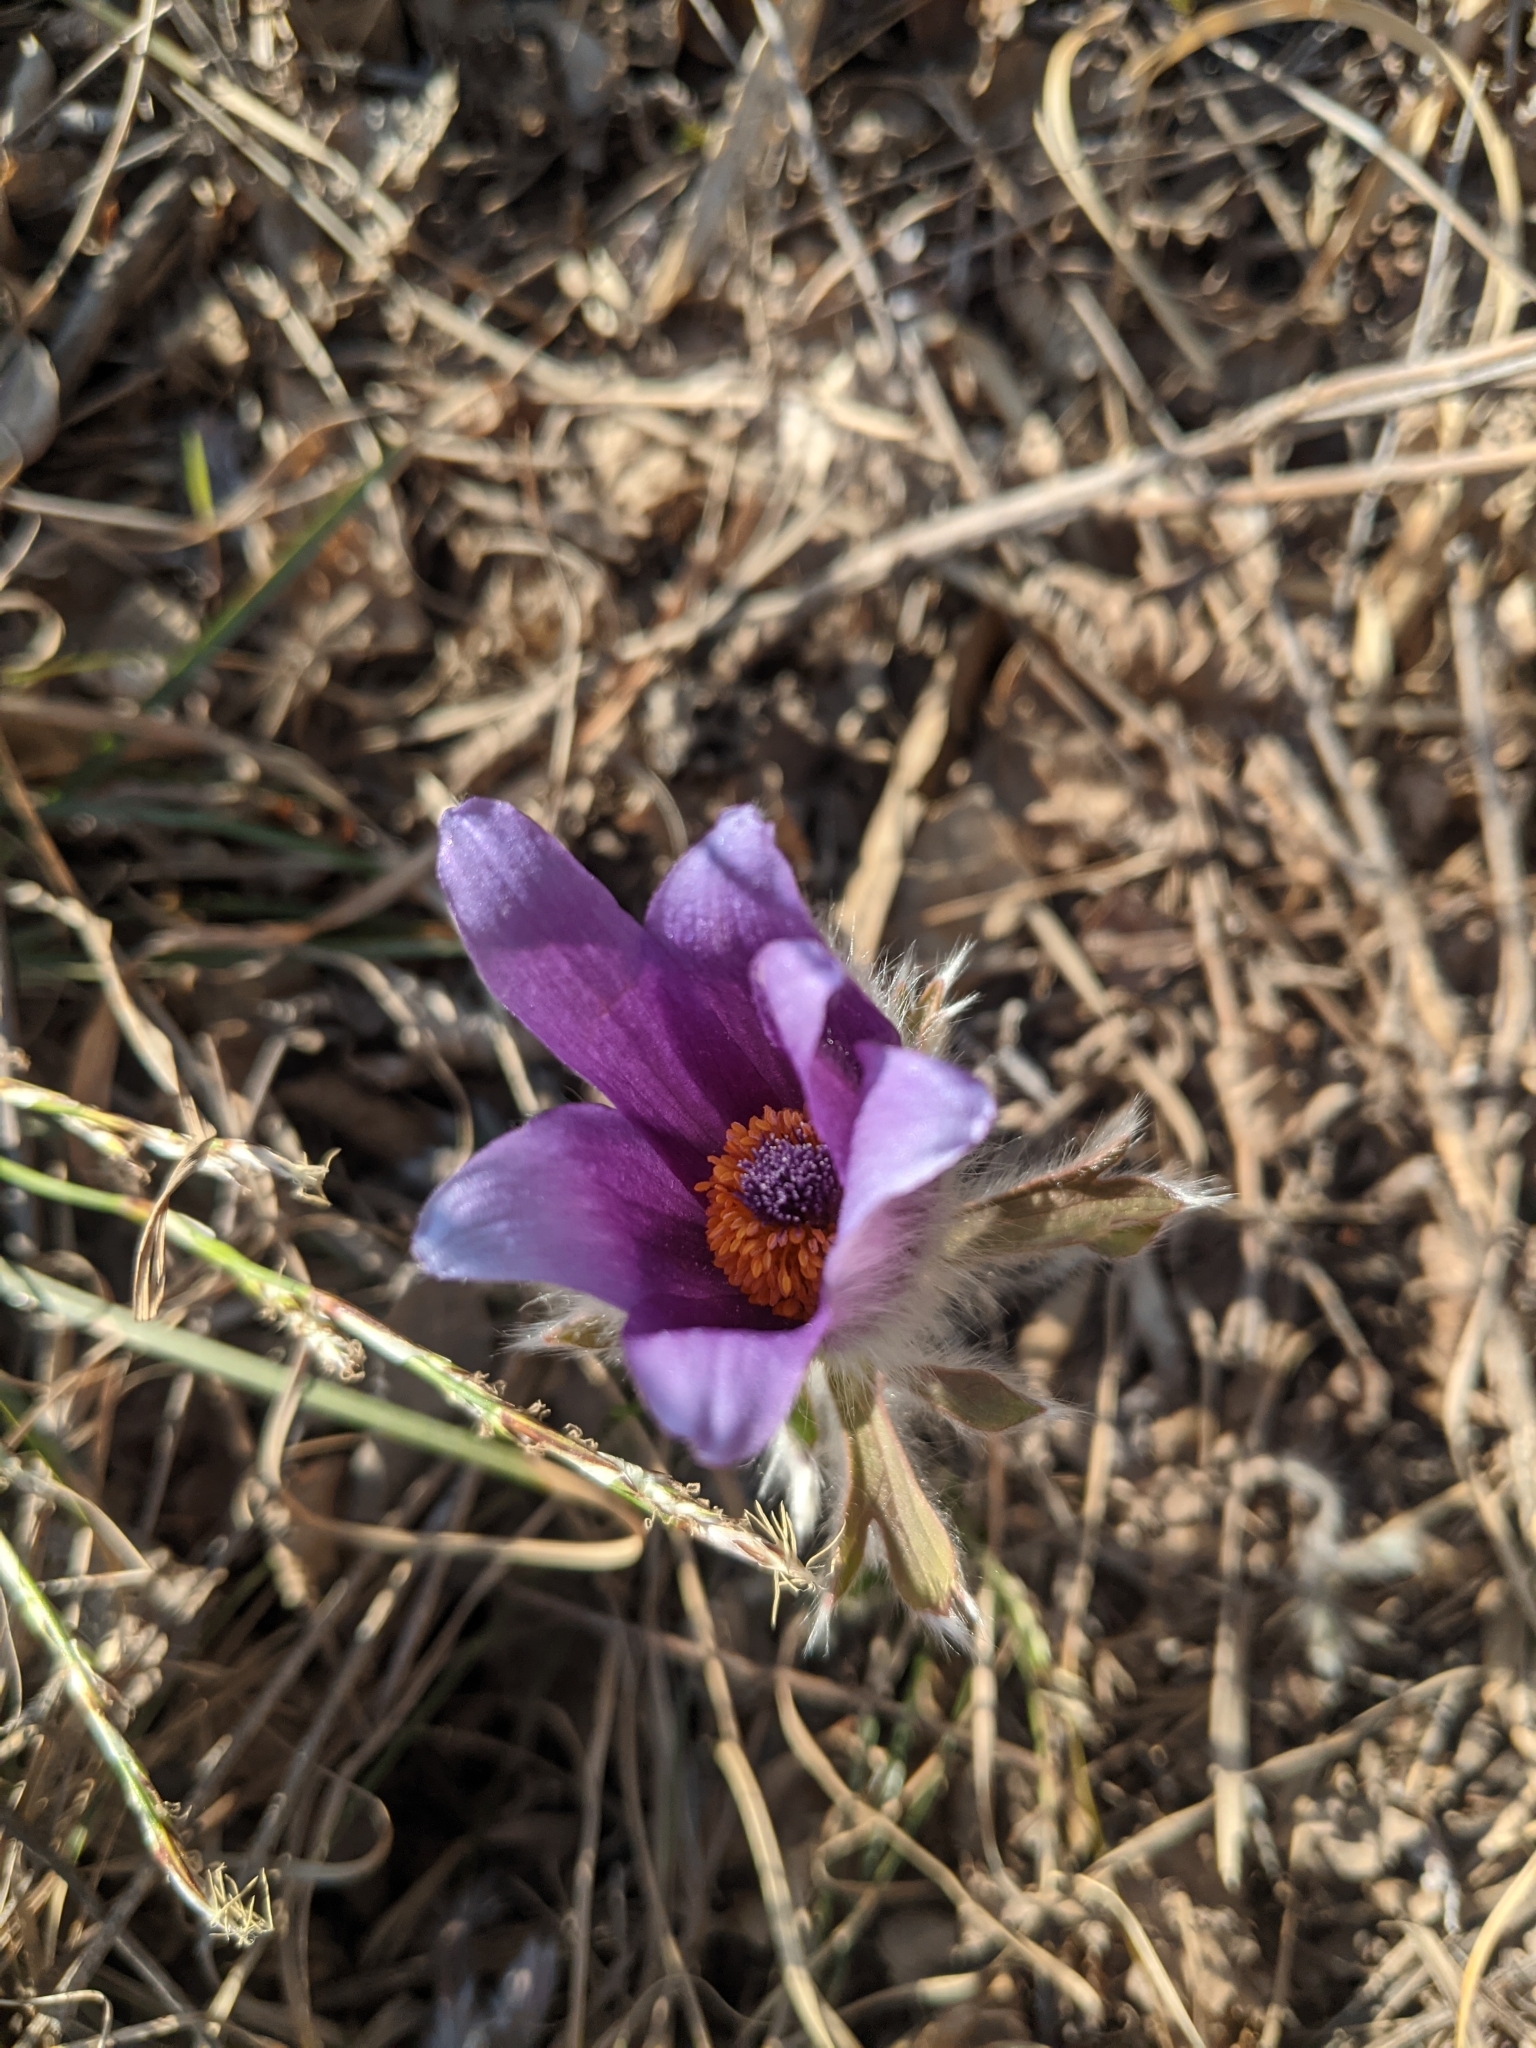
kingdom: Plantae
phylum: Tracheophyta
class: Magnoliopsida
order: Ranunculales
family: Ranunculaceae
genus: Pulsatilla
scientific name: Pulsatilla chinensis
